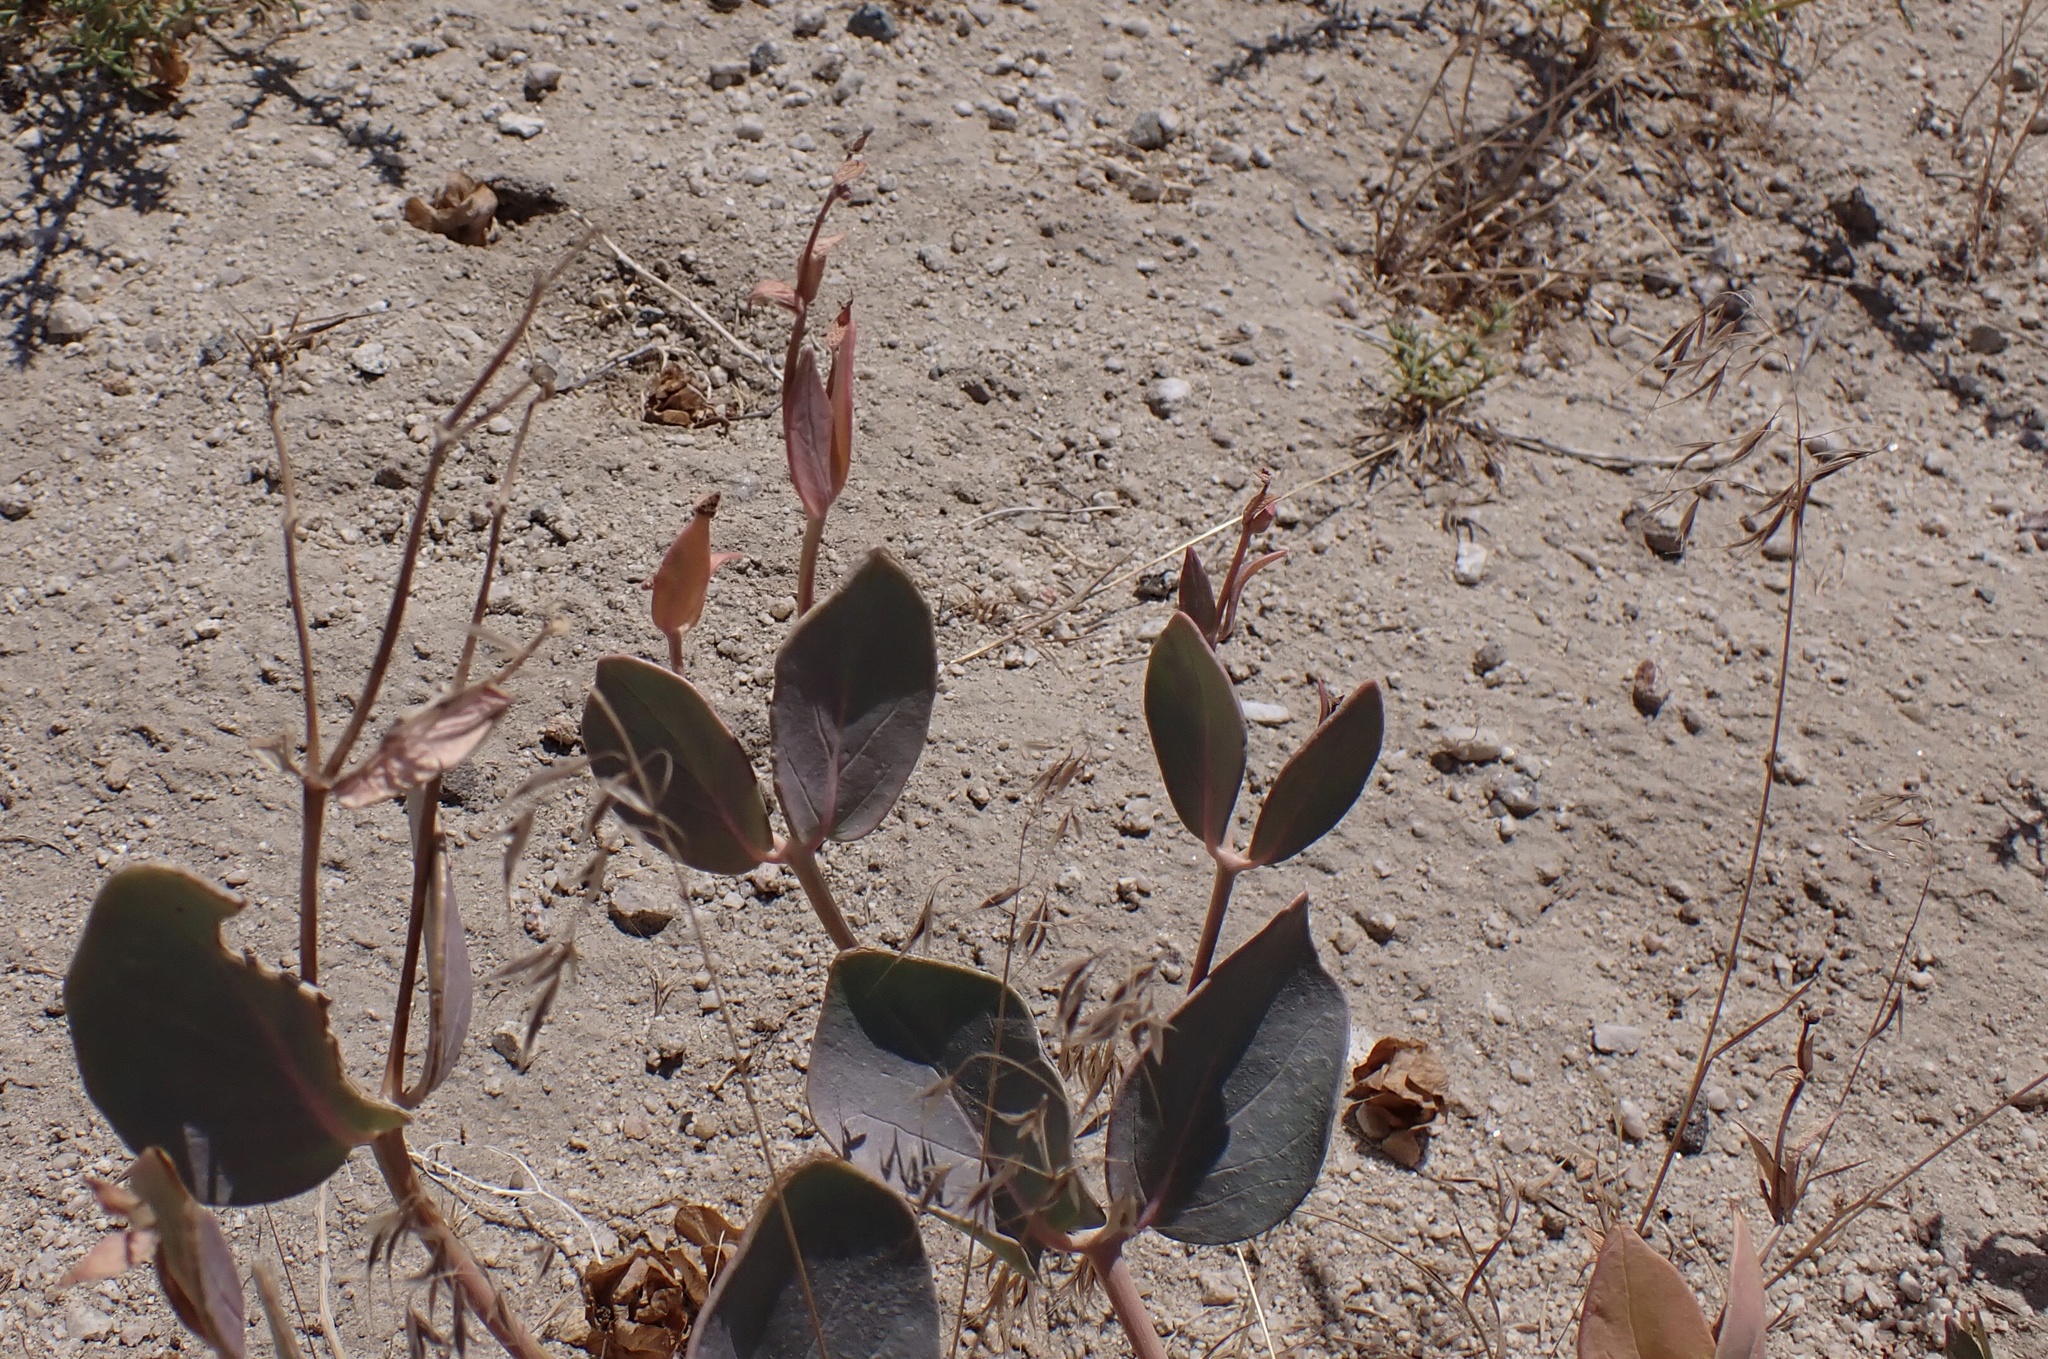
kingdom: Plantae
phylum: Tracheophyta
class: Magnoliopsida
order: Caryophyllales
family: Nyctaginaceae
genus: Mirabilis
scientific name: Mirabilis alipes
